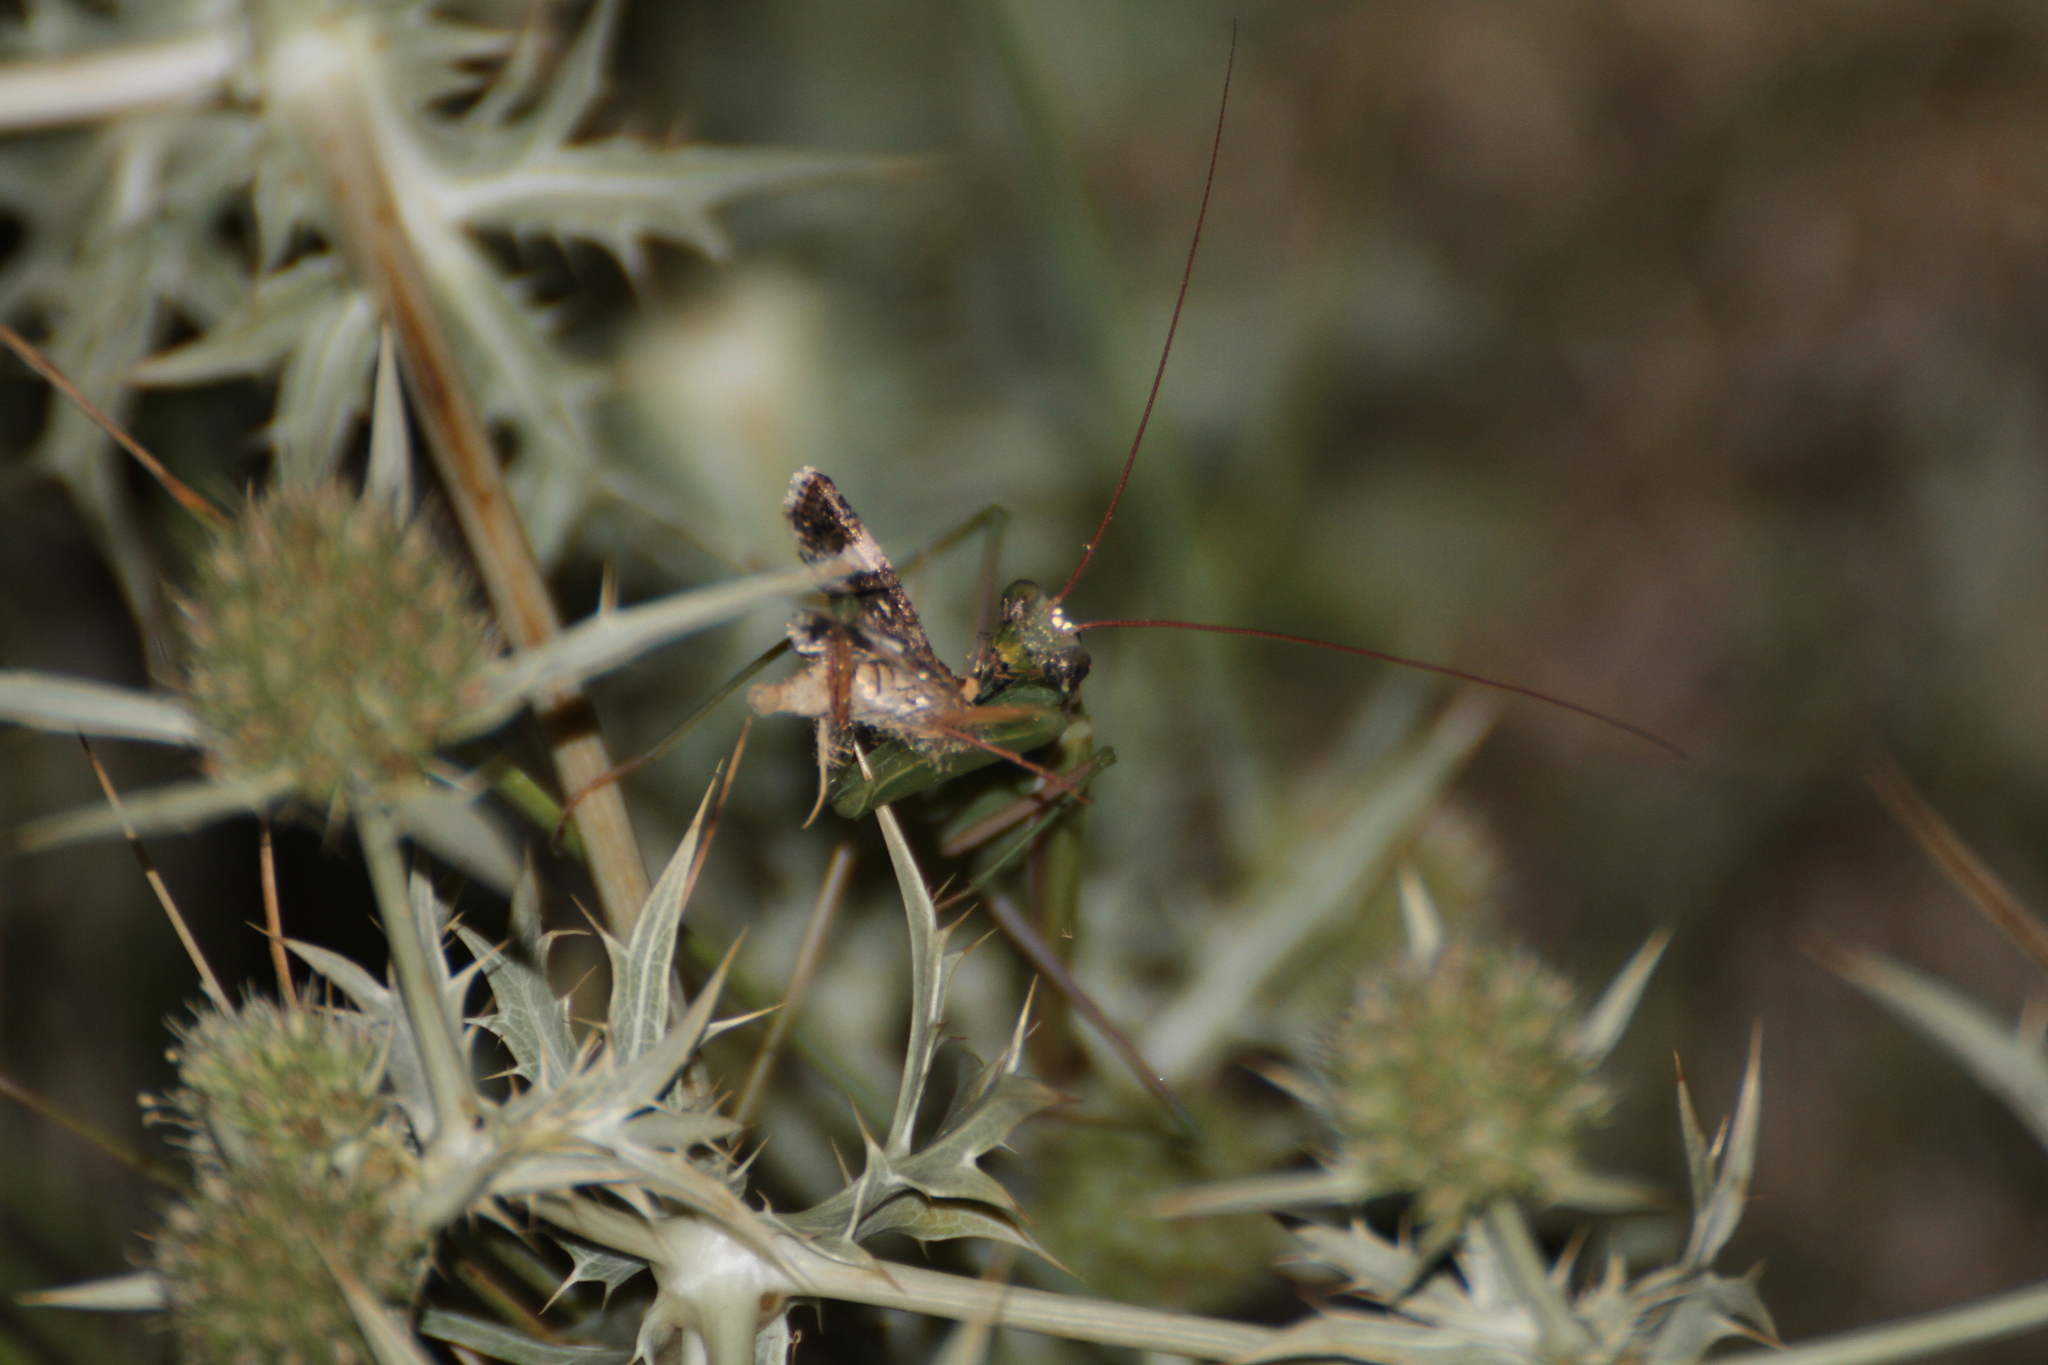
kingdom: Animalia
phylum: Arthropoda
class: Insecta
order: Mantodea
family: Mantidae
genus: Mantis
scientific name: Mantis religiosa
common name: Praying mantis
